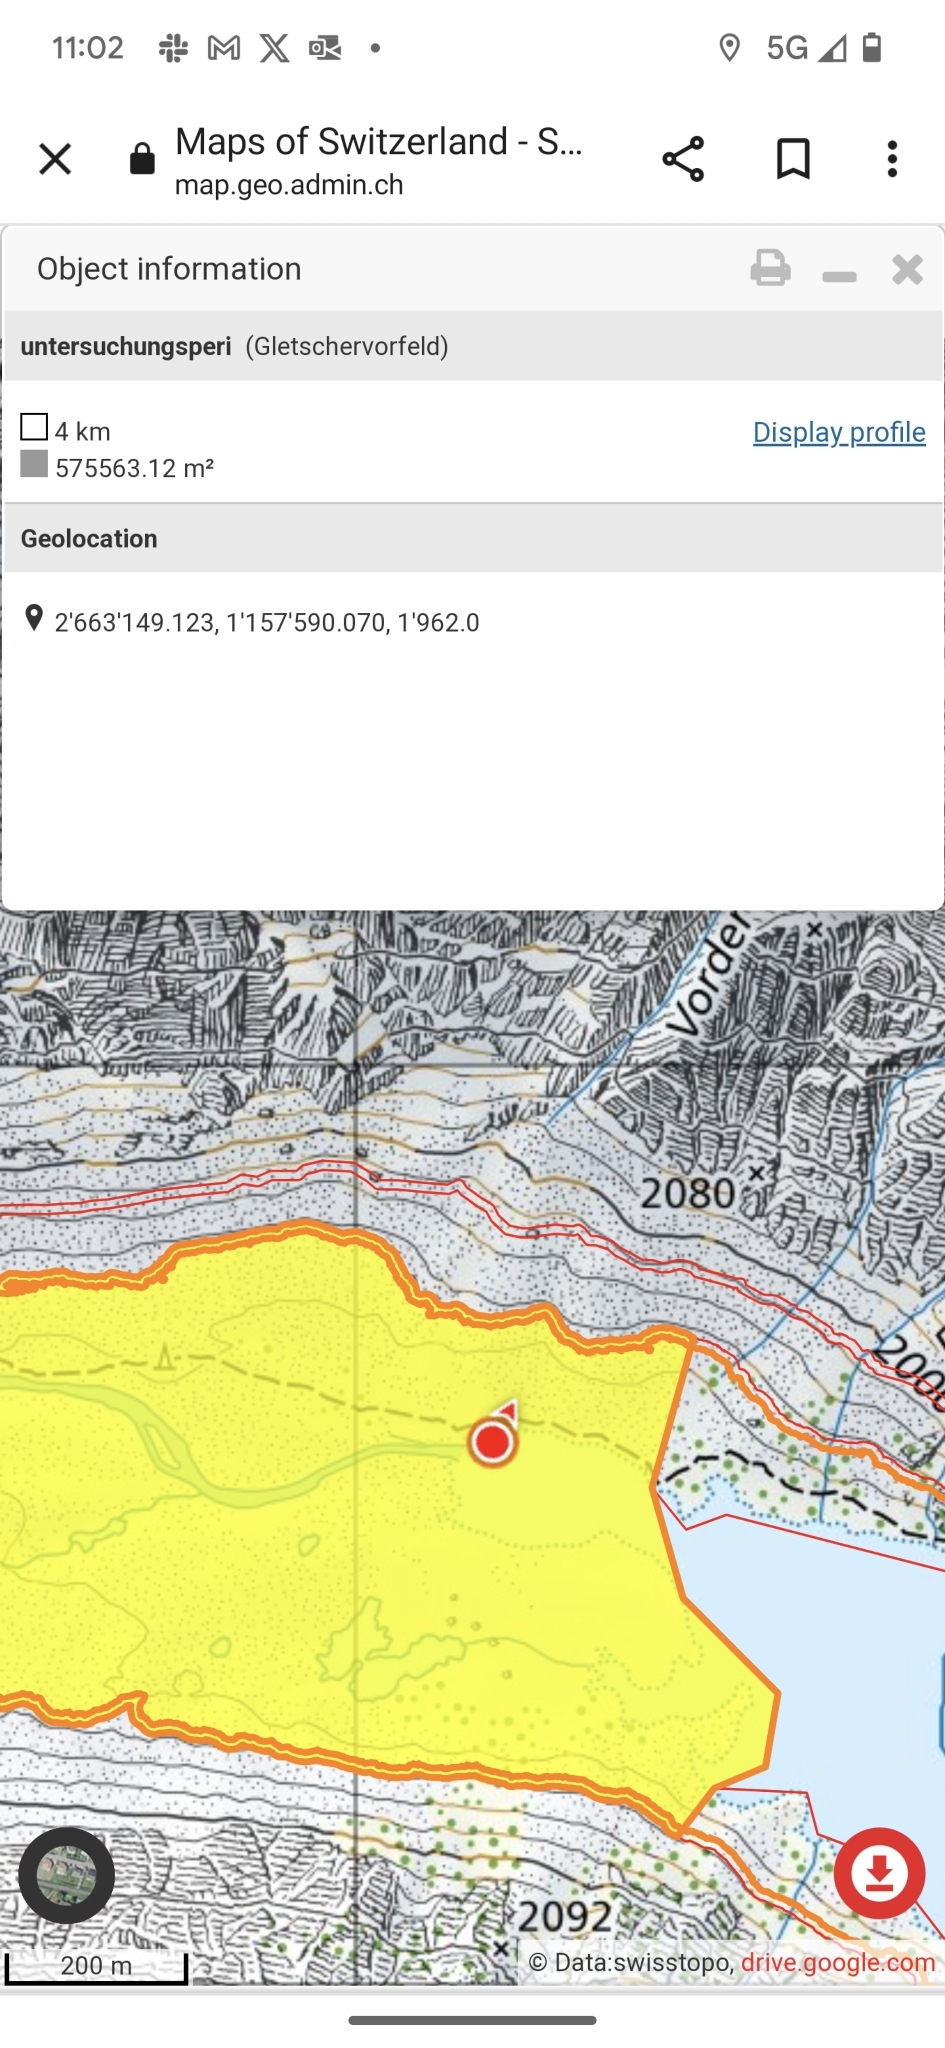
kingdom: Plantae
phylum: Tracheophyta
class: Magnoliopsida
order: Fabales
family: Fabaceae
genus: Trifolium
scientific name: Trifolium badium
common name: Brown clover
